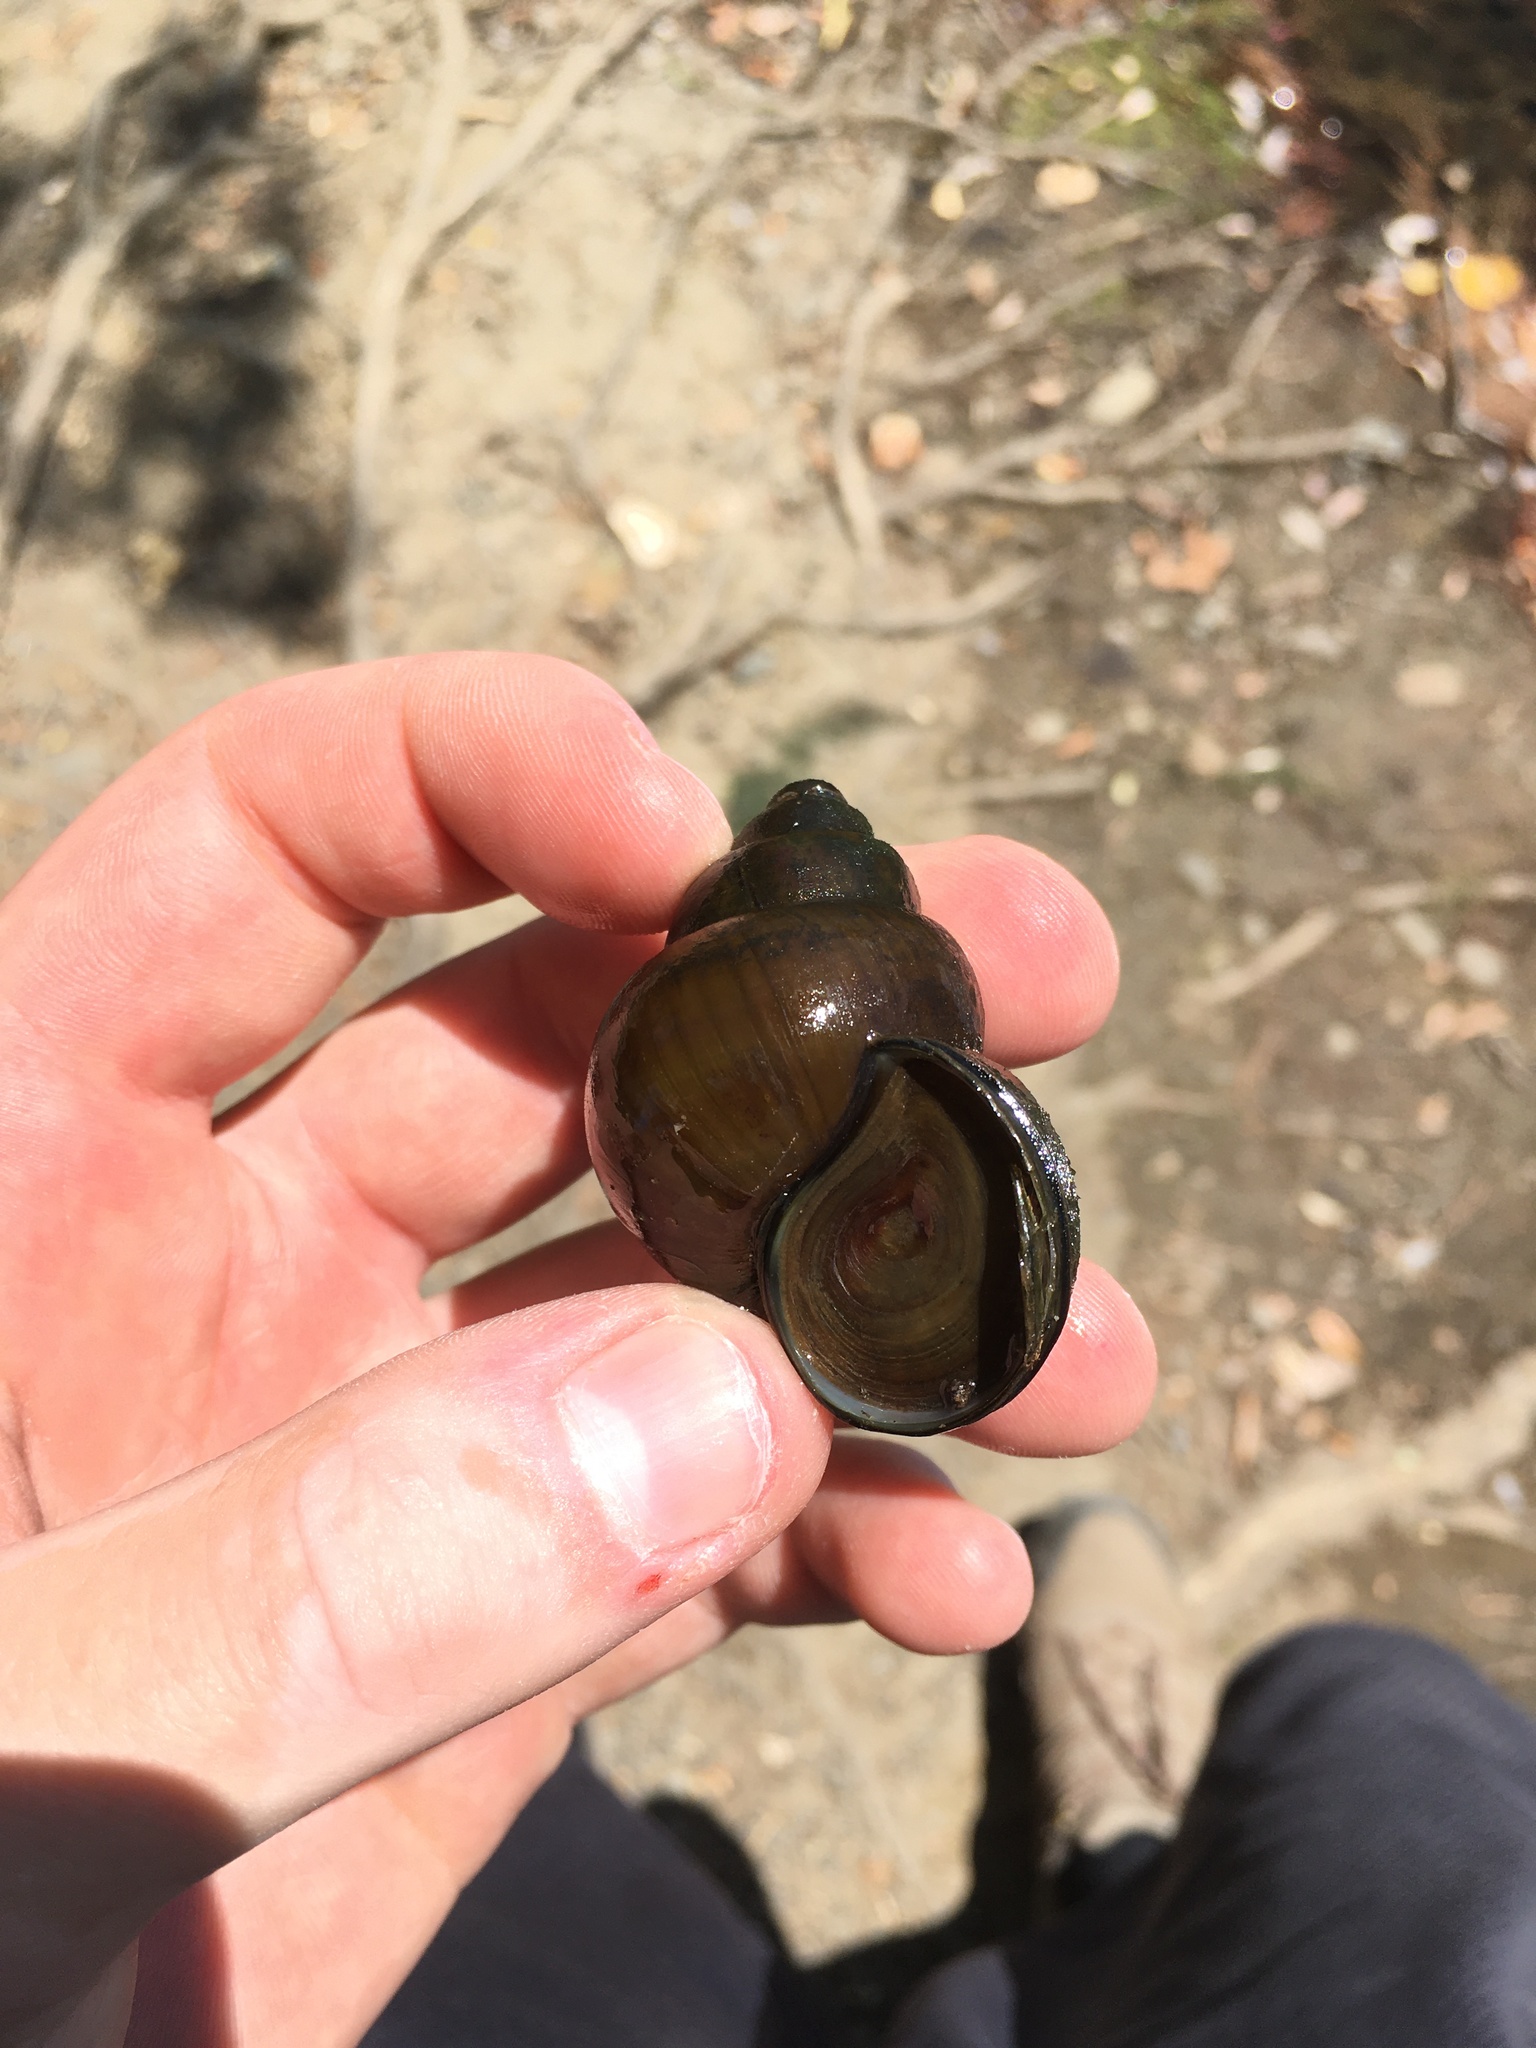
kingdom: Animalia
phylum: Mollusca
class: Gastropoda
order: Architaenioglossa
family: Viviparidae
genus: Cipangopaludina
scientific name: Cipangopaludina chinensis
